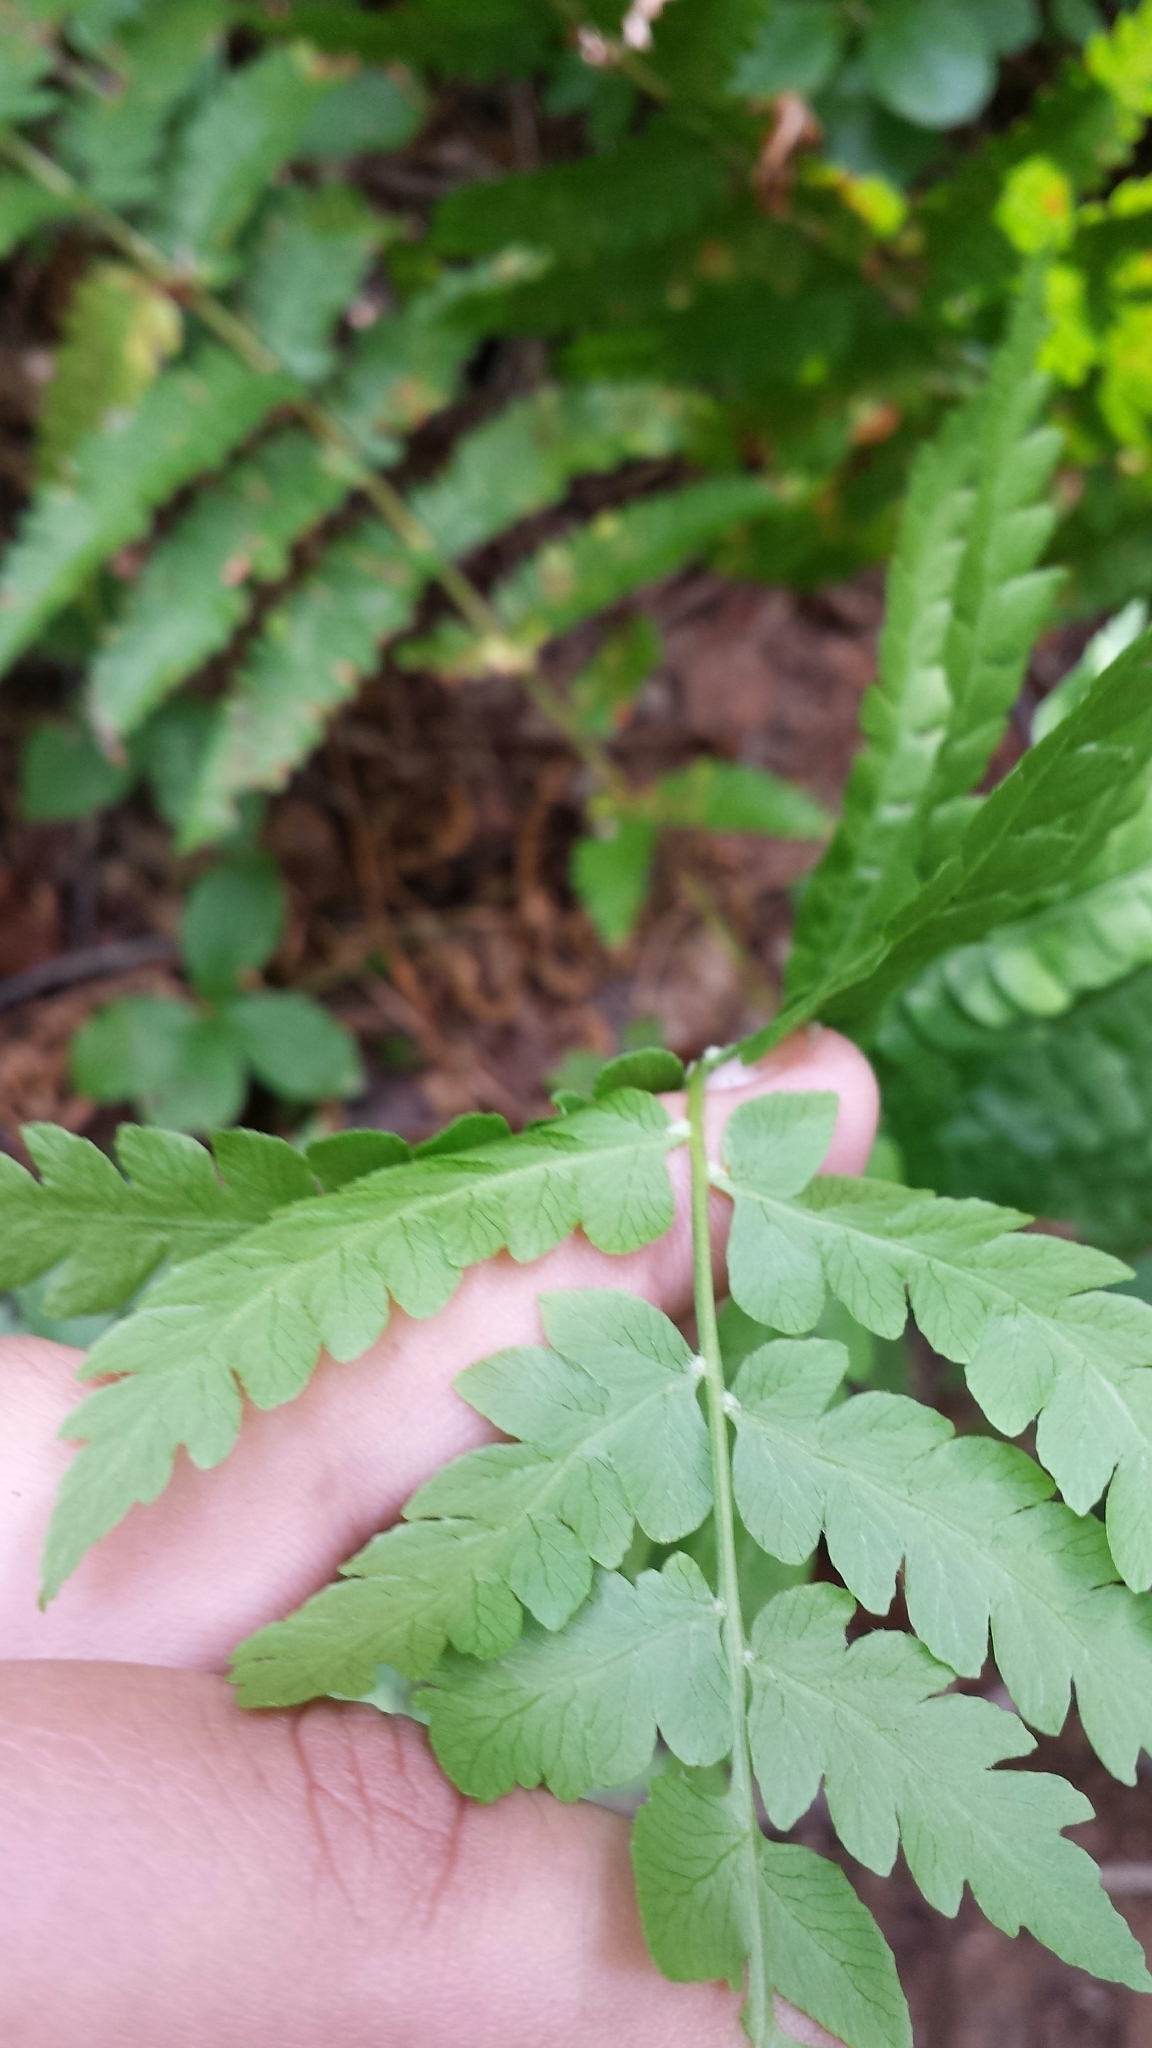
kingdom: Plantae
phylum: Tracheophyta
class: Polypodiopsida
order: Osmundales
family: Osmundaceae
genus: Osmundastrum
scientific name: Osmundastrum cinnamomeum
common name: Cinnamon fern
